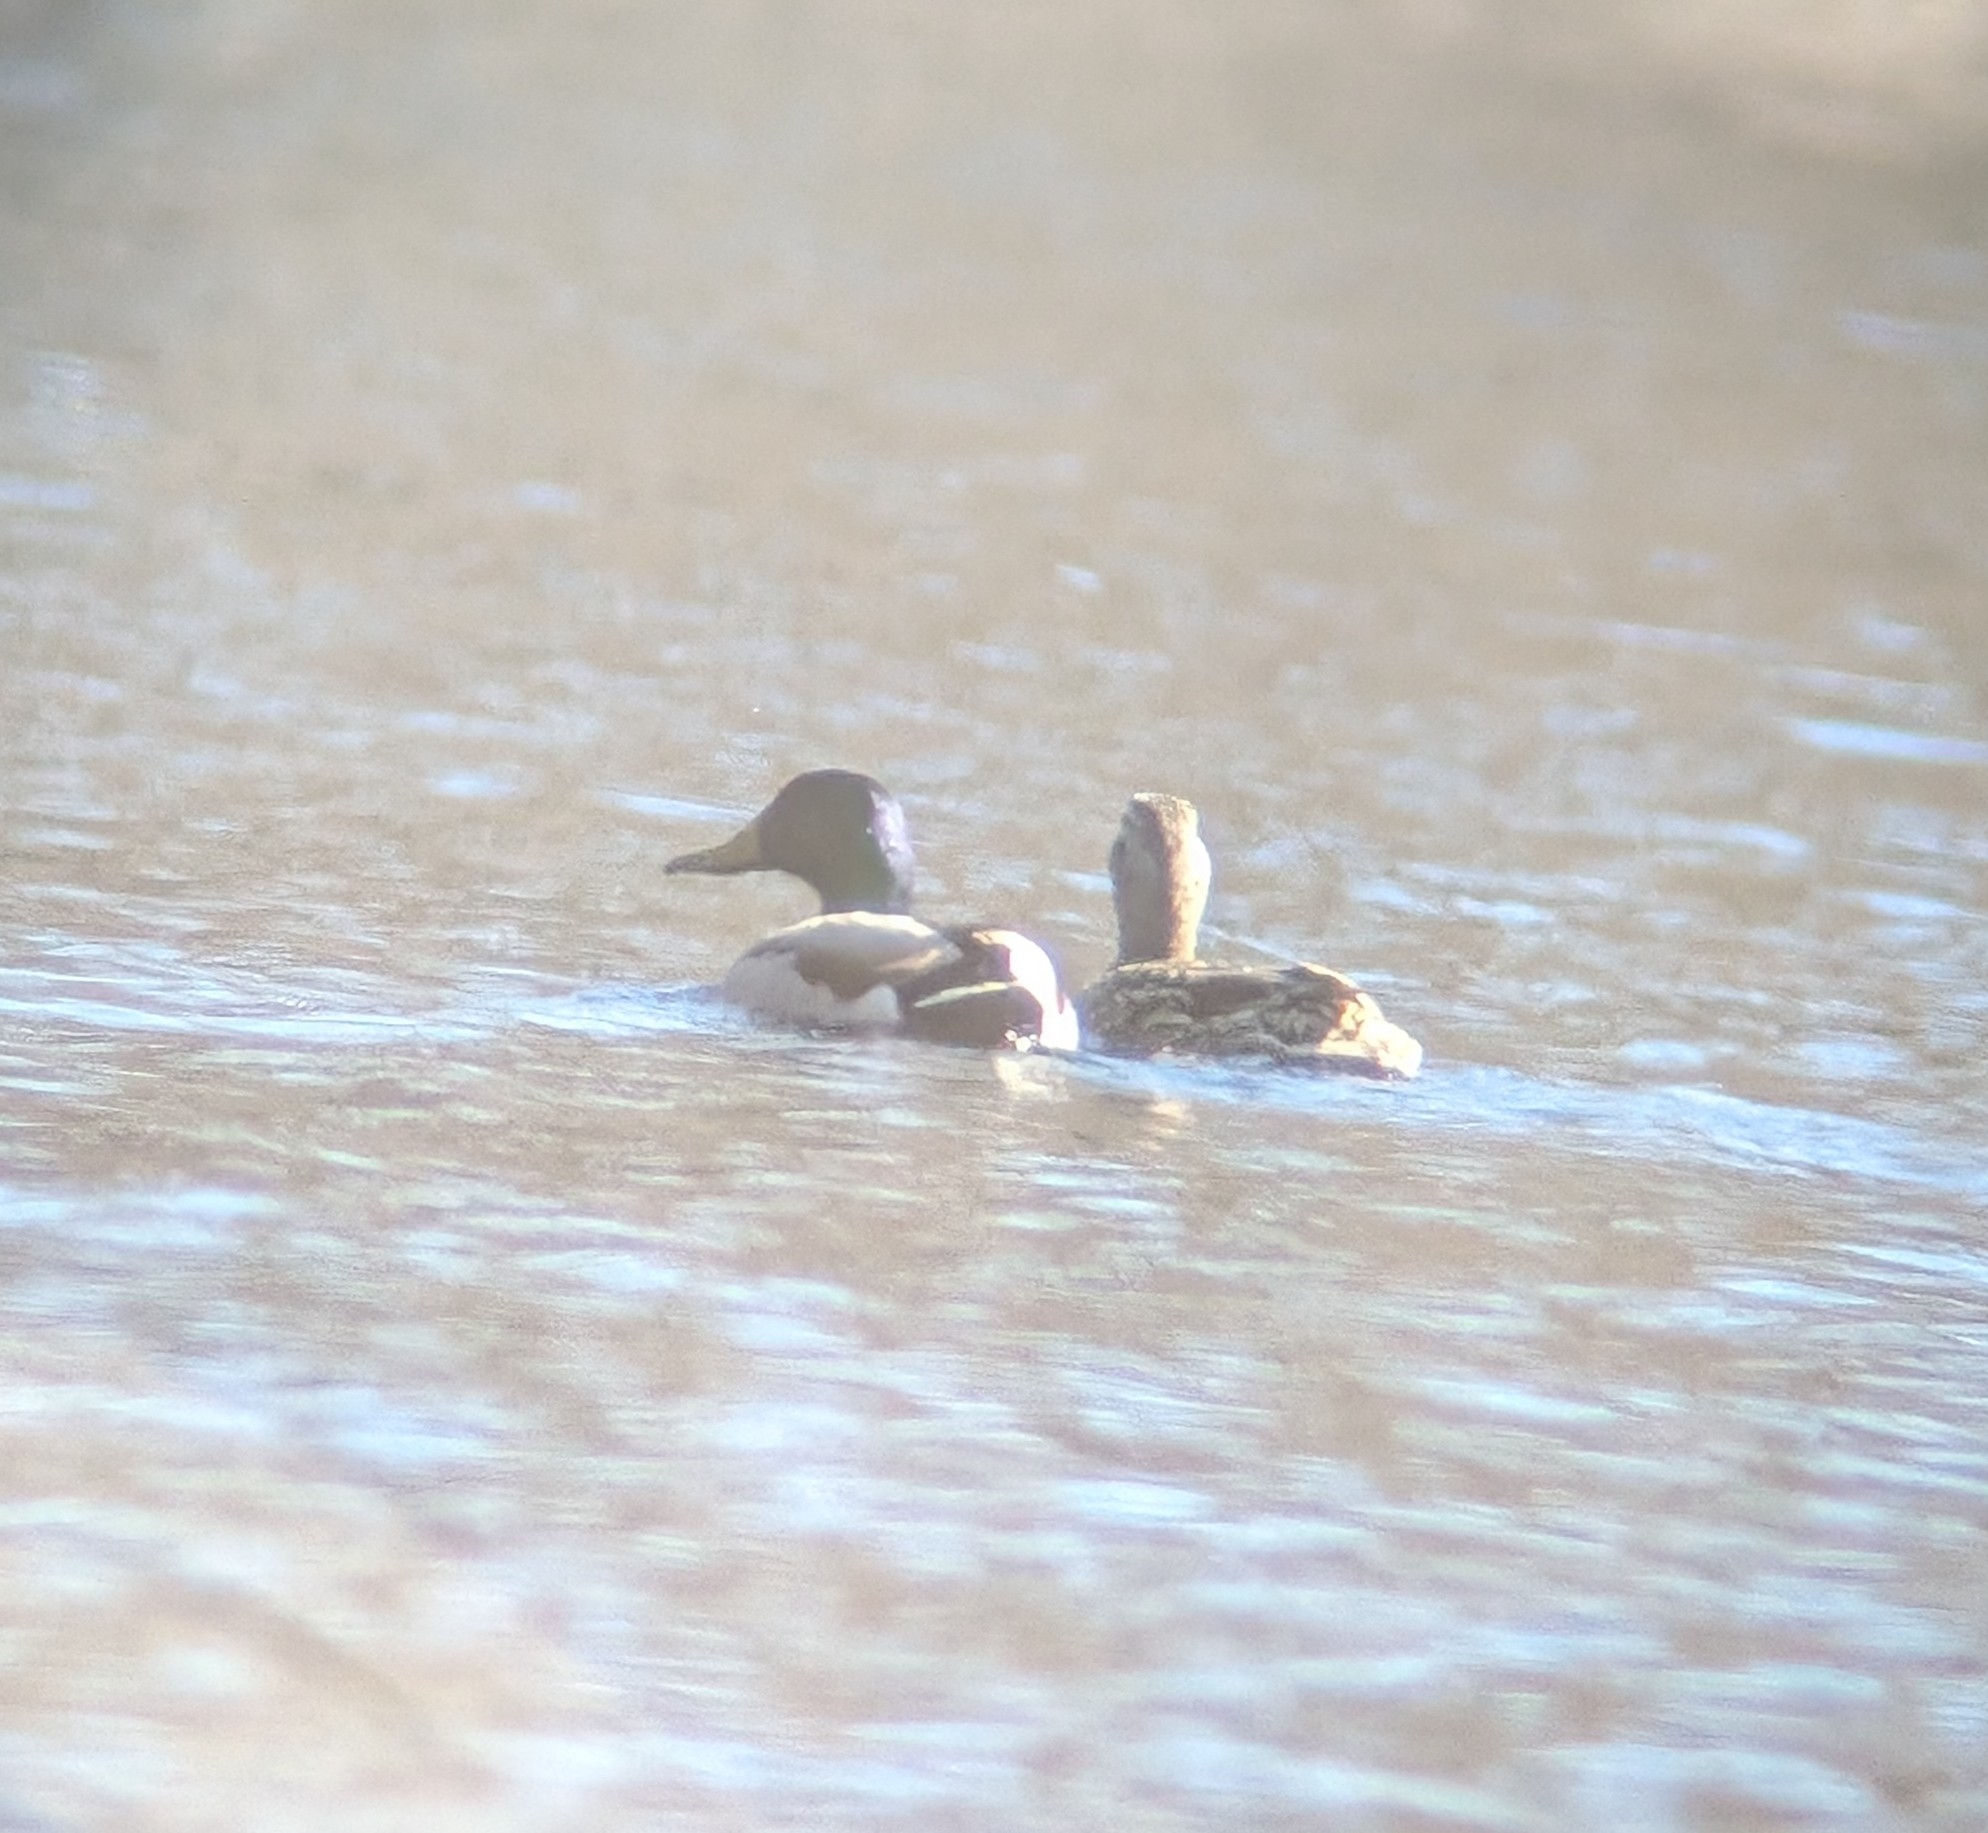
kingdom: Animalia
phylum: Chordata
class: Aves
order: Anseriformes
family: Anatidae
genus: Anas
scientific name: Anas platyrhynchos
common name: Mallard
